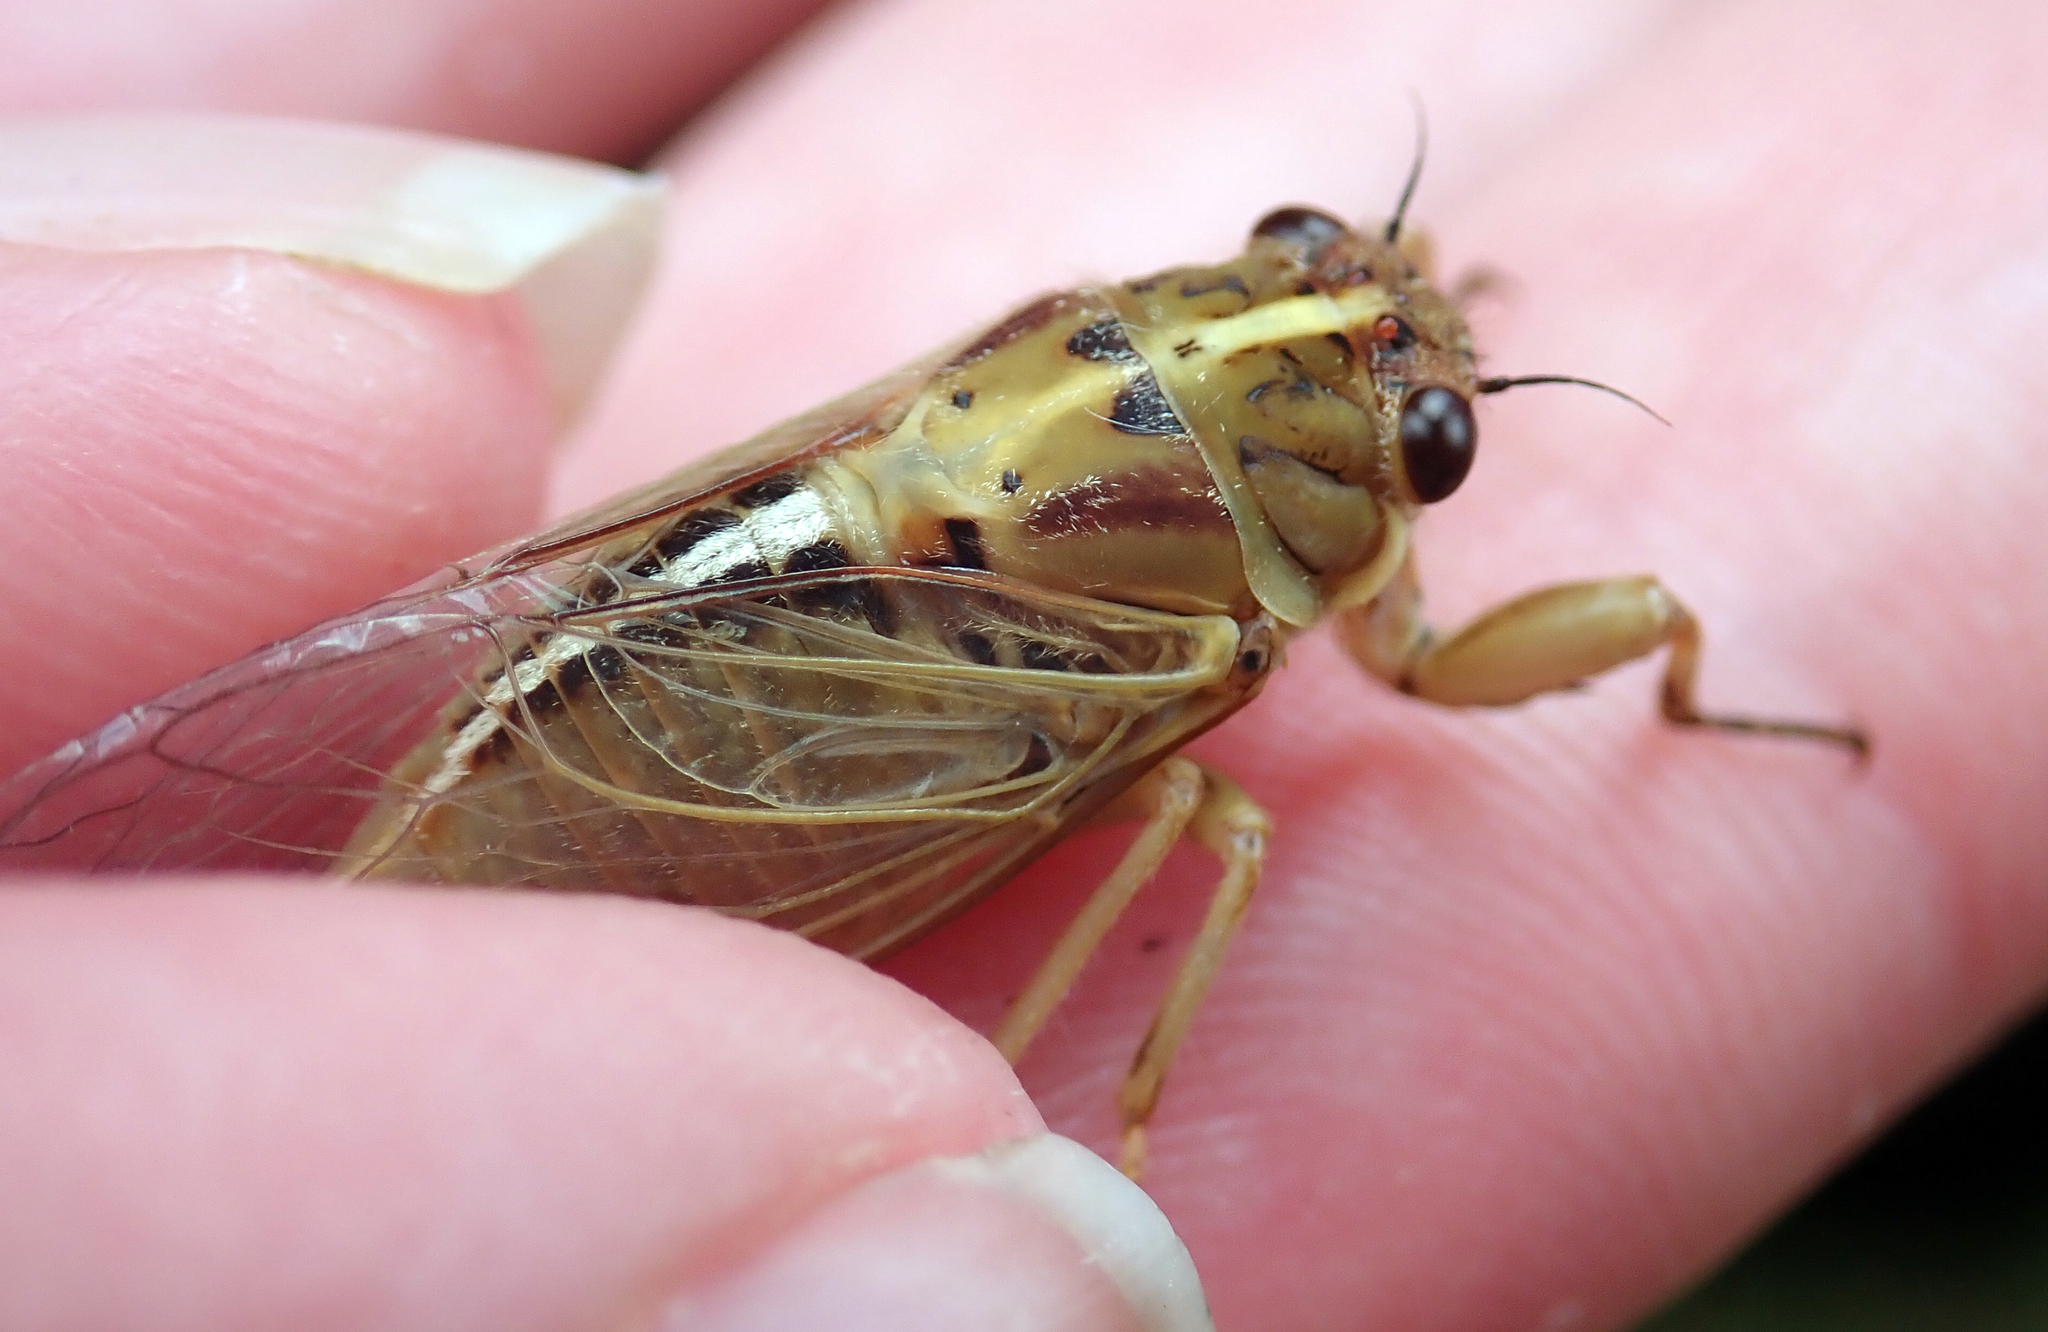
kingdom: Animalia
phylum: Arthropoda
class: Insecta
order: Hemiptera
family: Cicadidae
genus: Kikihia
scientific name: Kikihia longula
